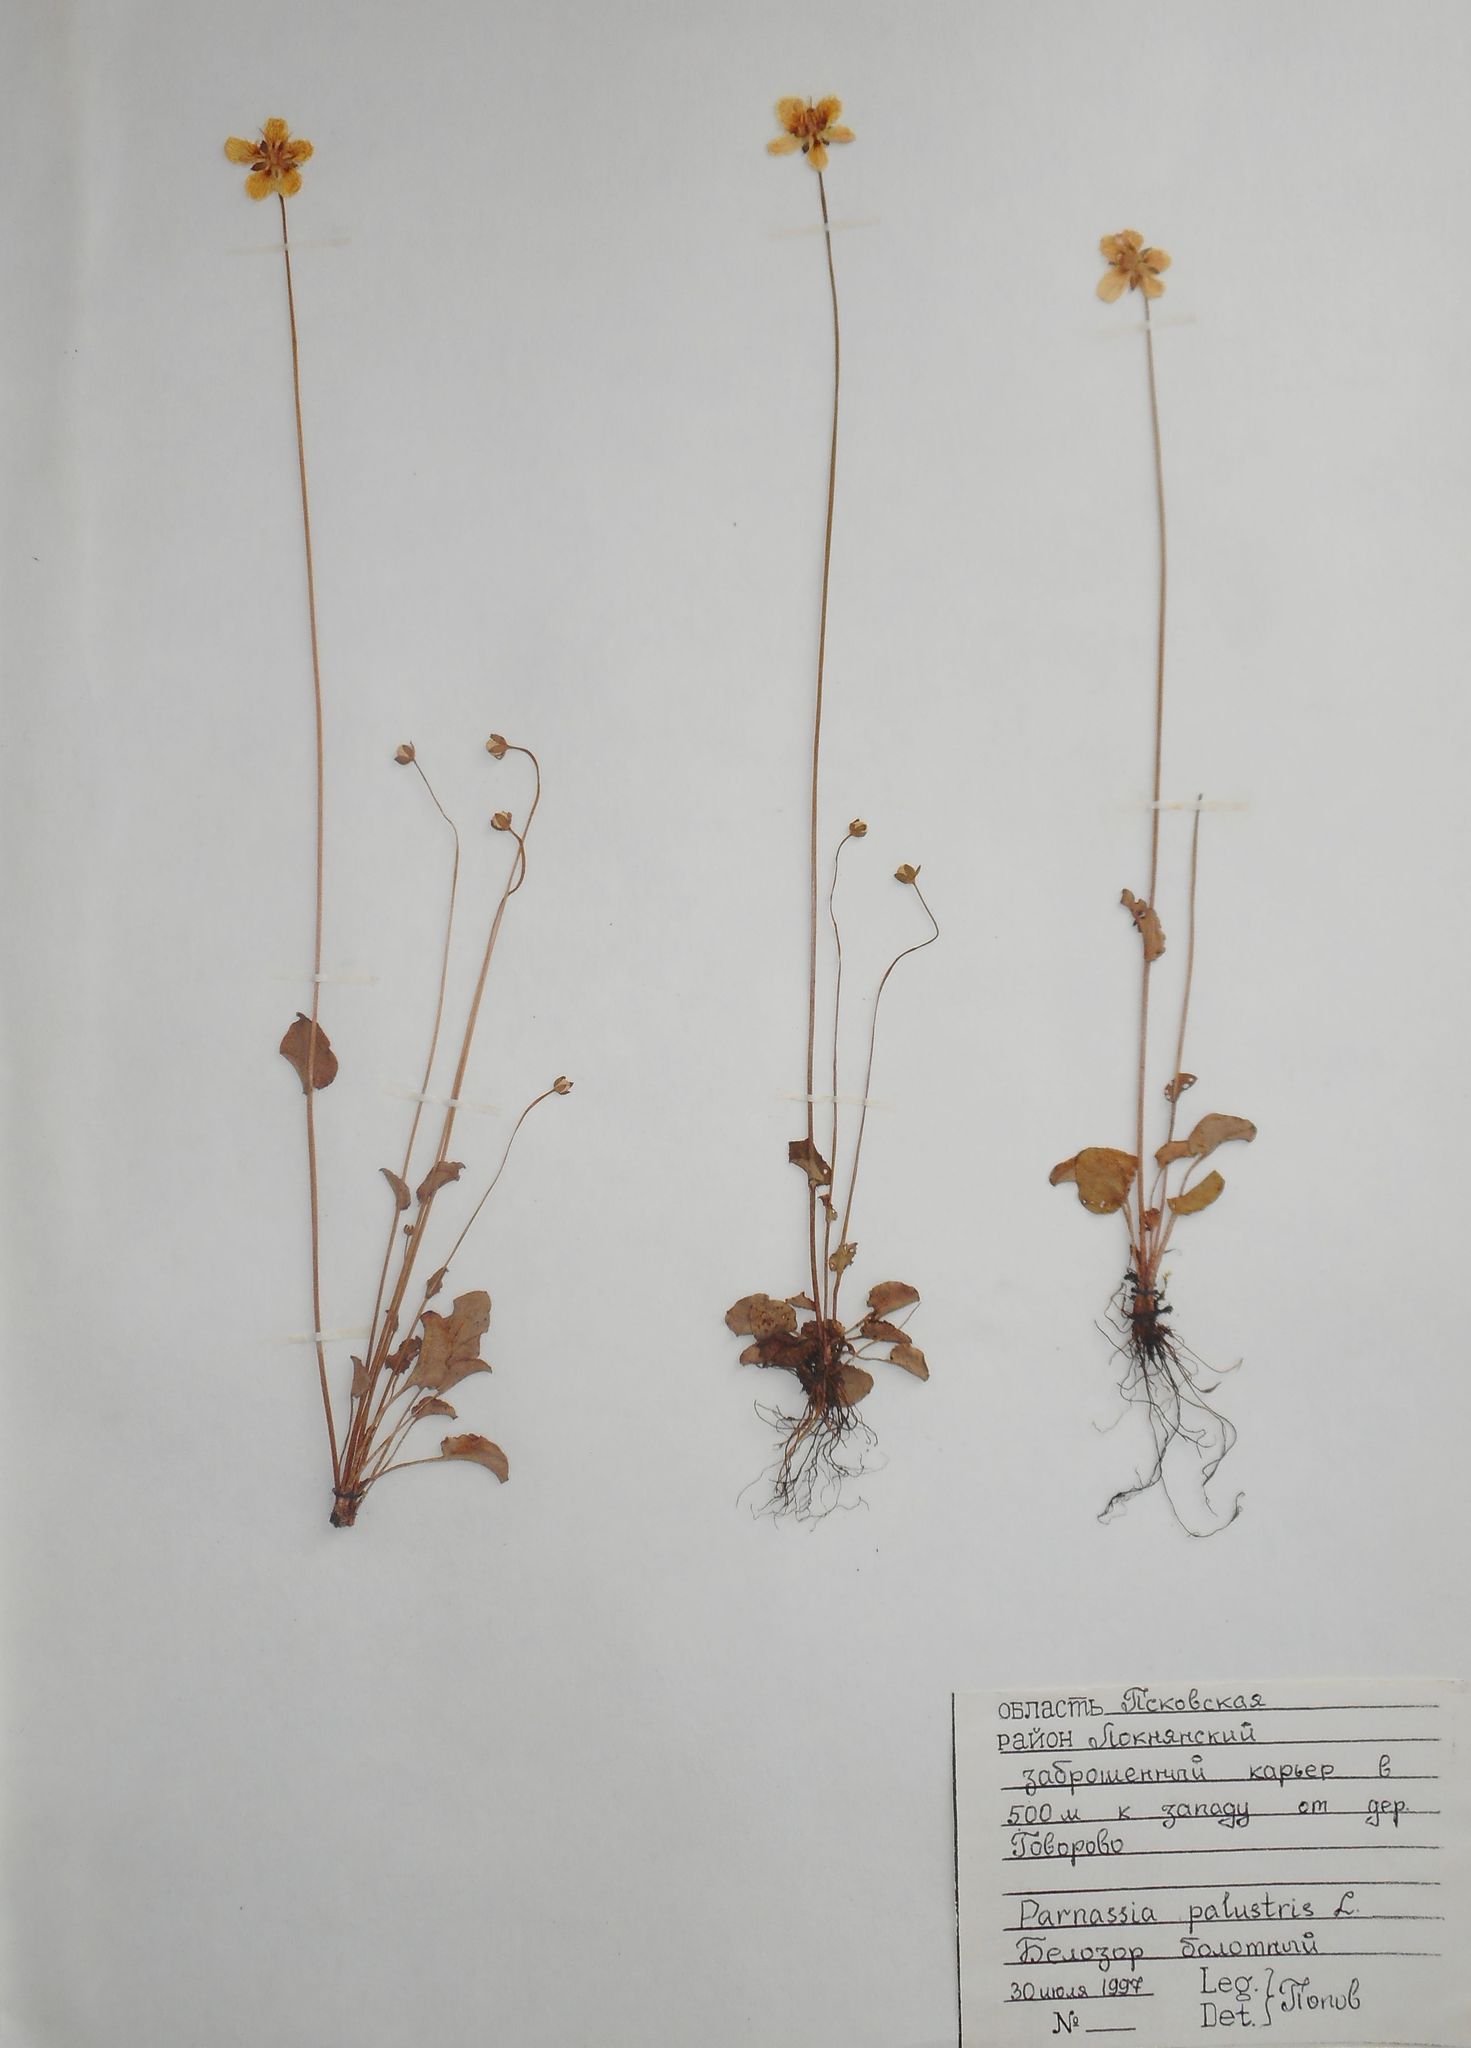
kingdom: Plantae
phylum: Tracheophyta
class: Magnoliopsida
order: Celastrales
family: Parnassiaceae
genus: Parnassia
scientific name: Parnassia palustris
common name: Grass-of-parnassus
